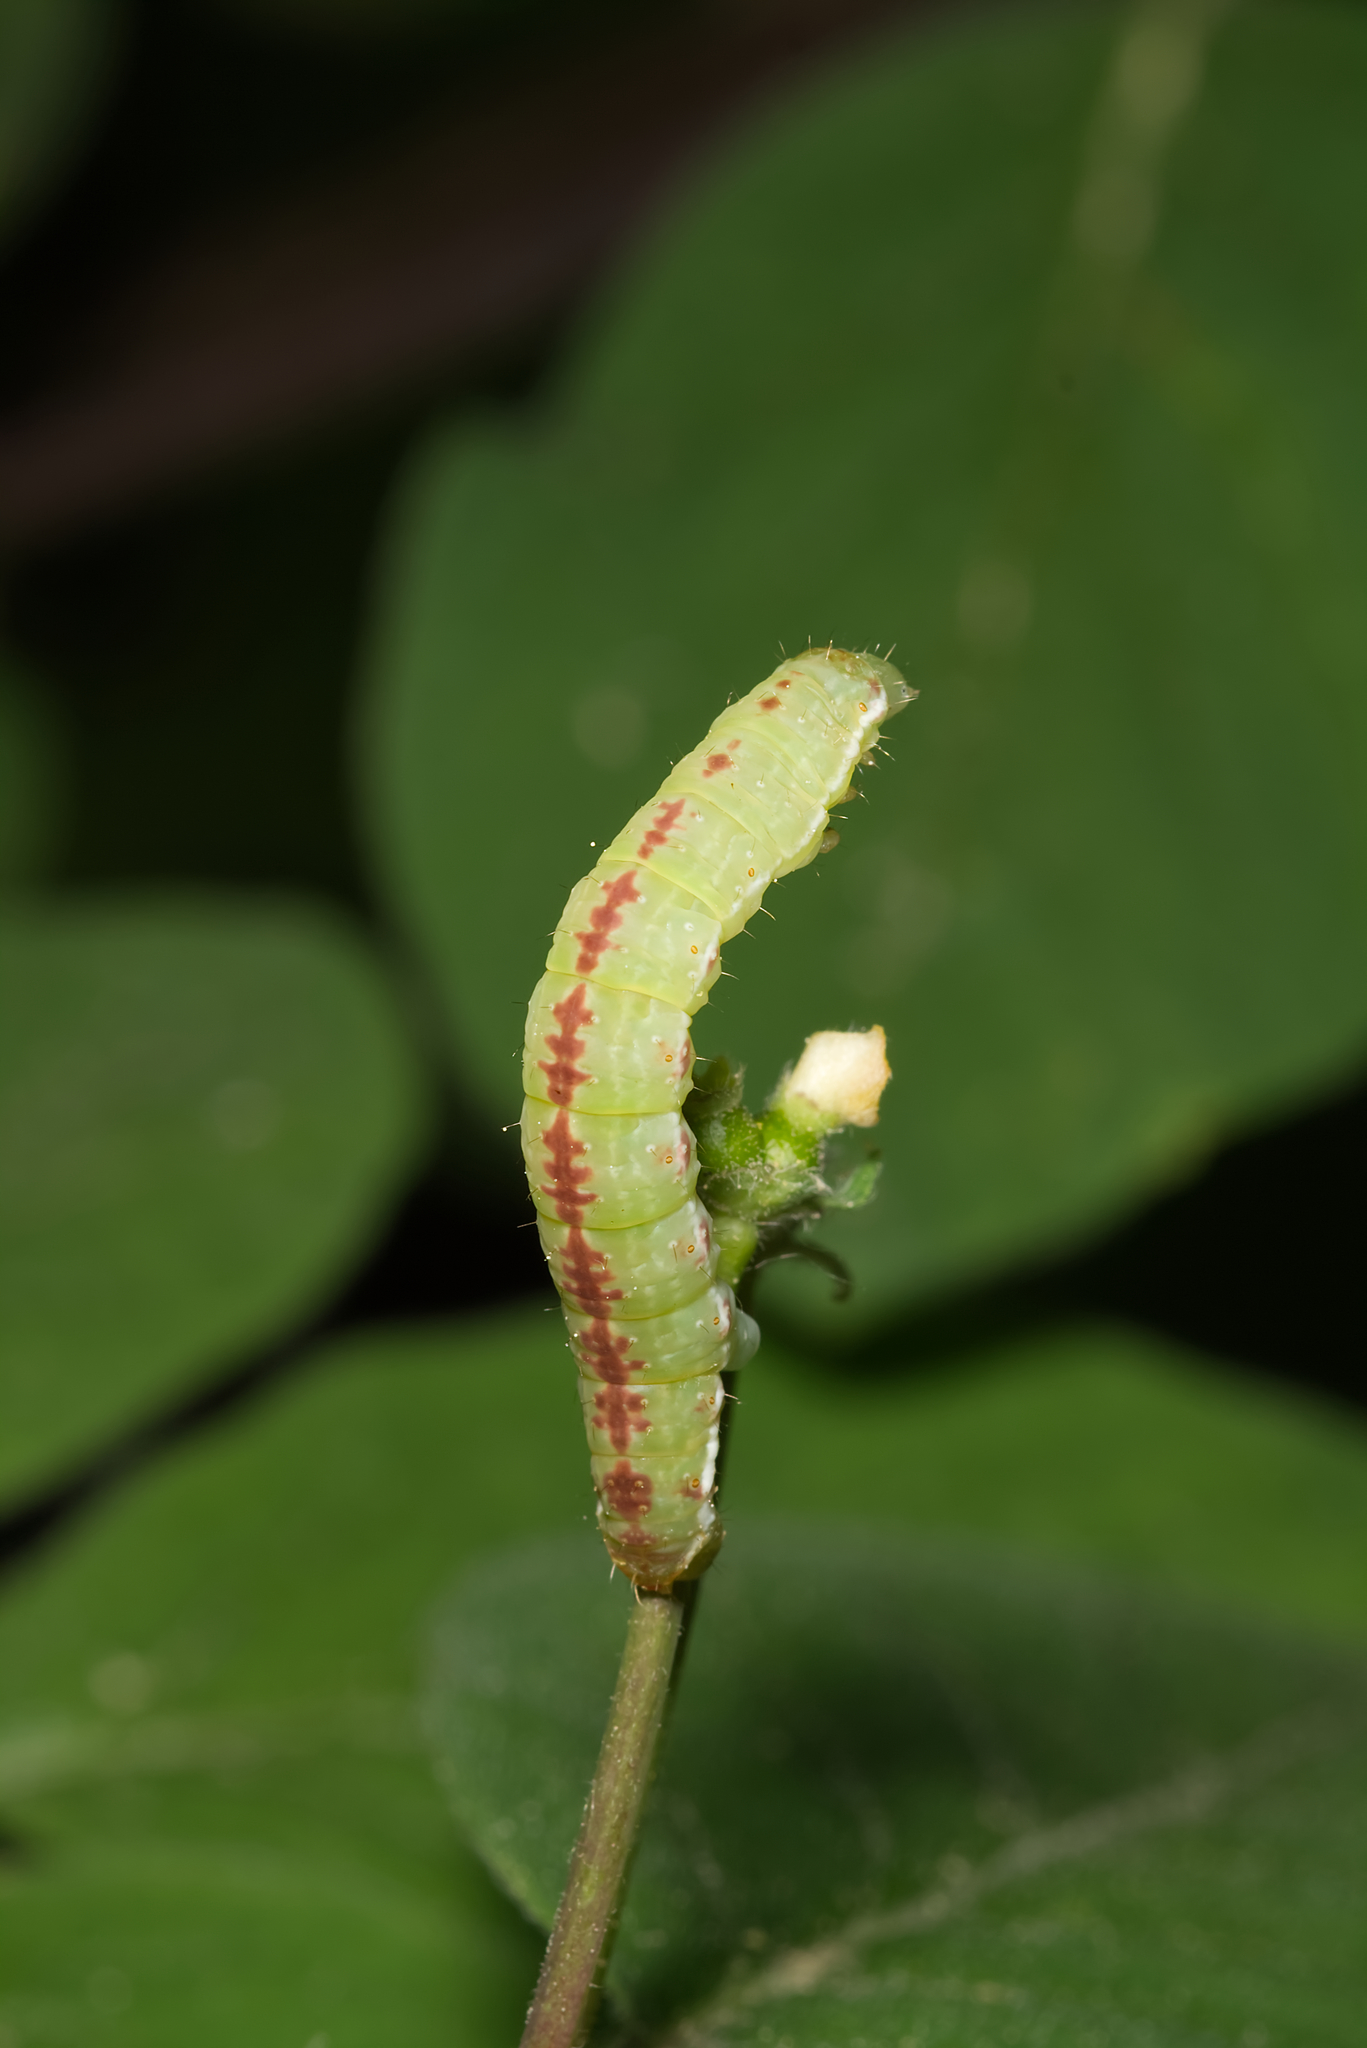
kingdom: Animalia
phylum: Arthropoda
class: Insecta
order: Lepidoptera
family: Geometridae
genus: Epirrita
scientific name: Epirrita
